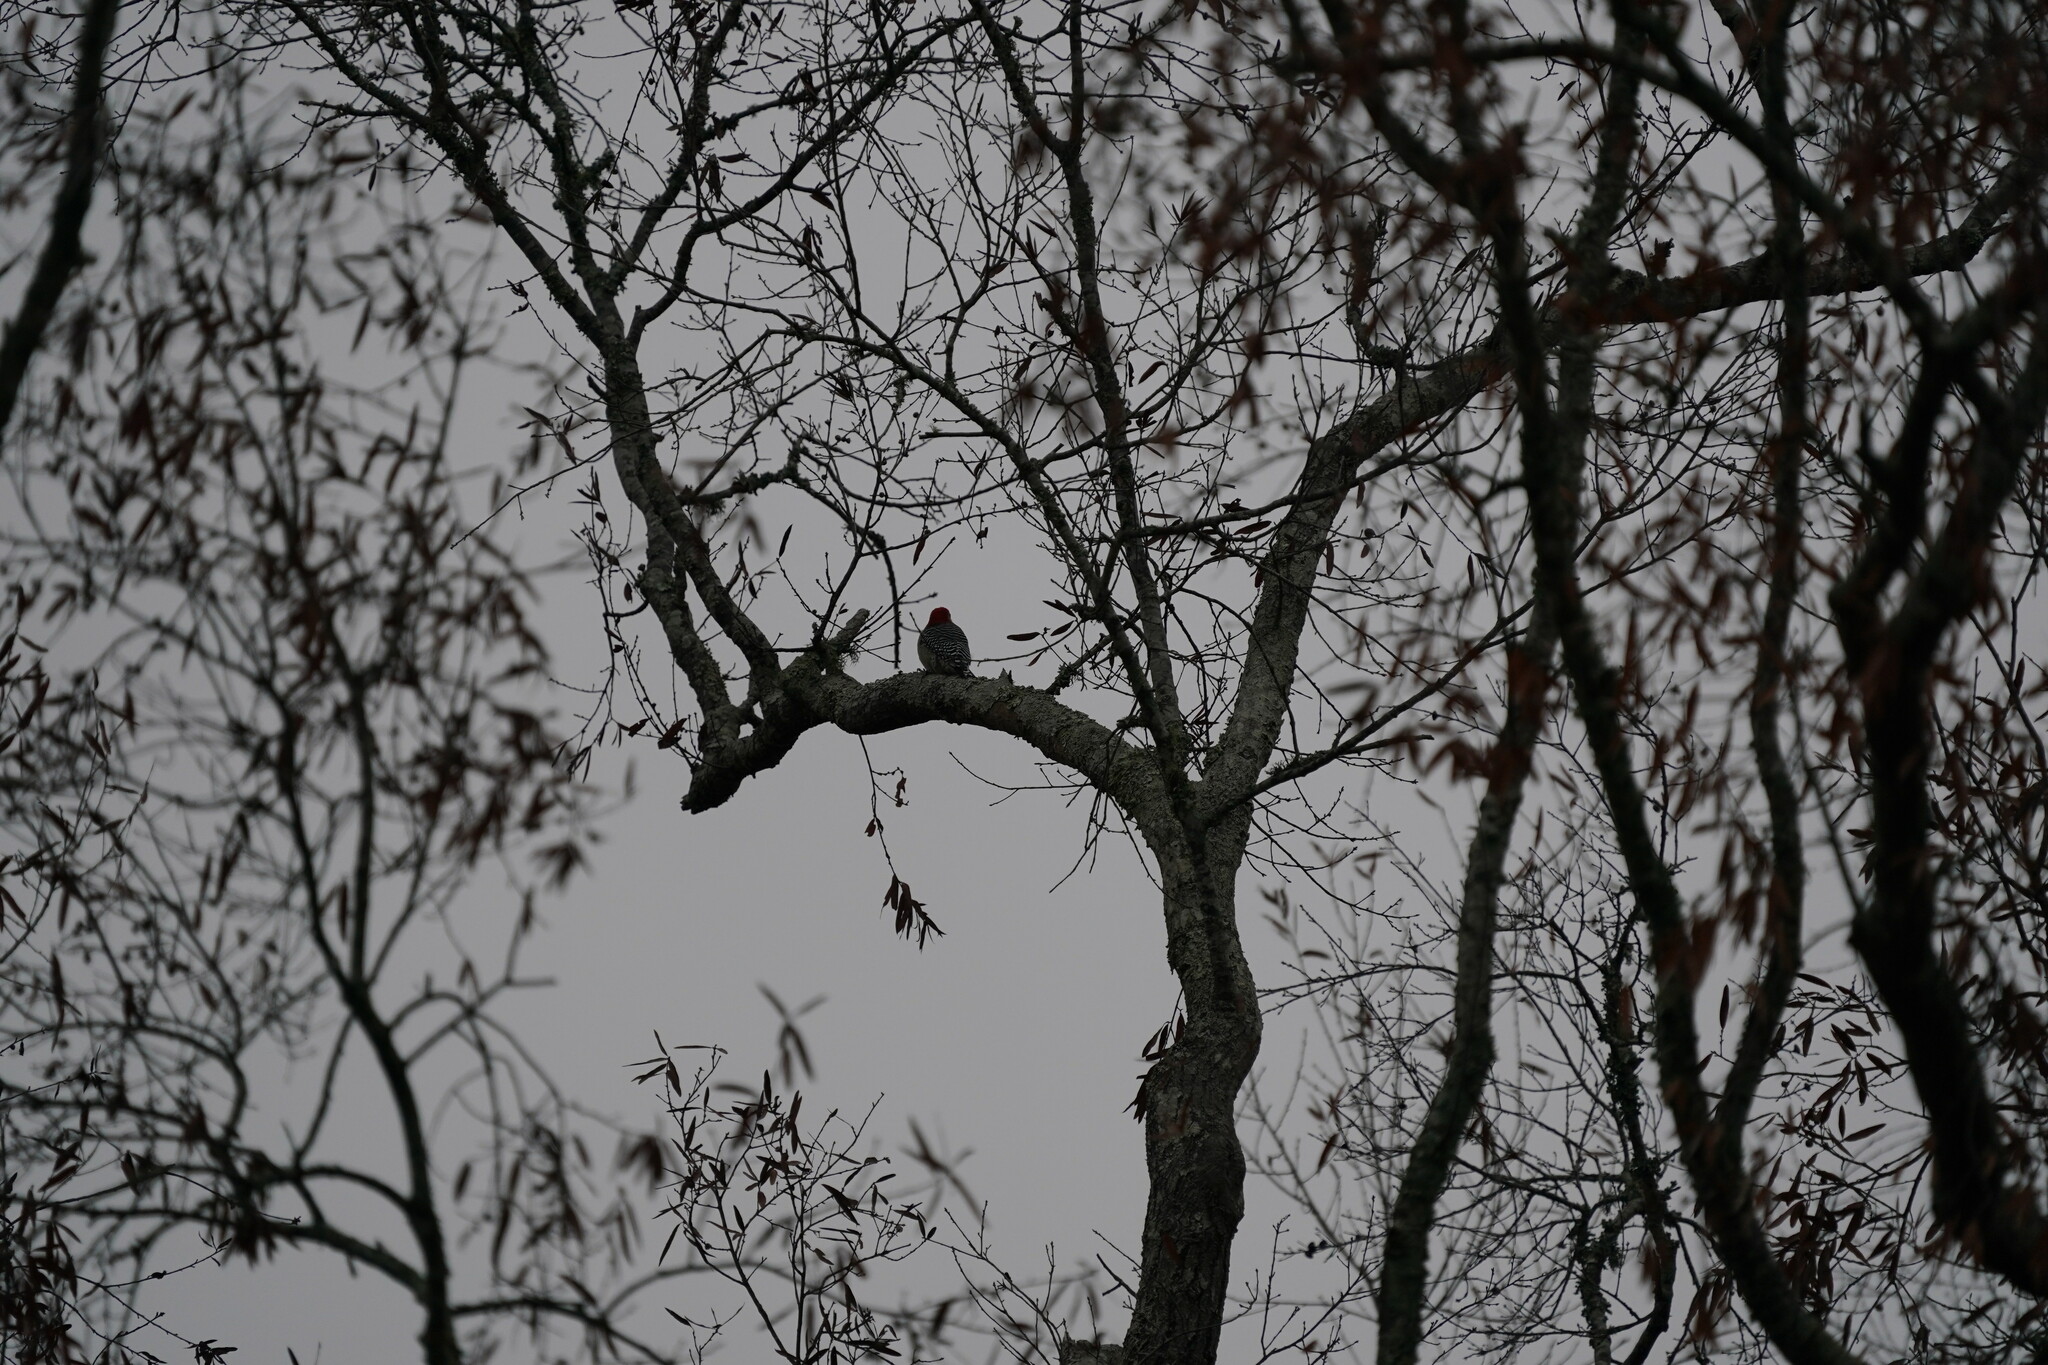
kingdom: Animalia
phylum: Chordata
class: Aves
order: Piciformes
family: Picidae
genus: Melanerpes
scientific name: Melanerpes carolinus
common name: Red-bellied woodpecker
